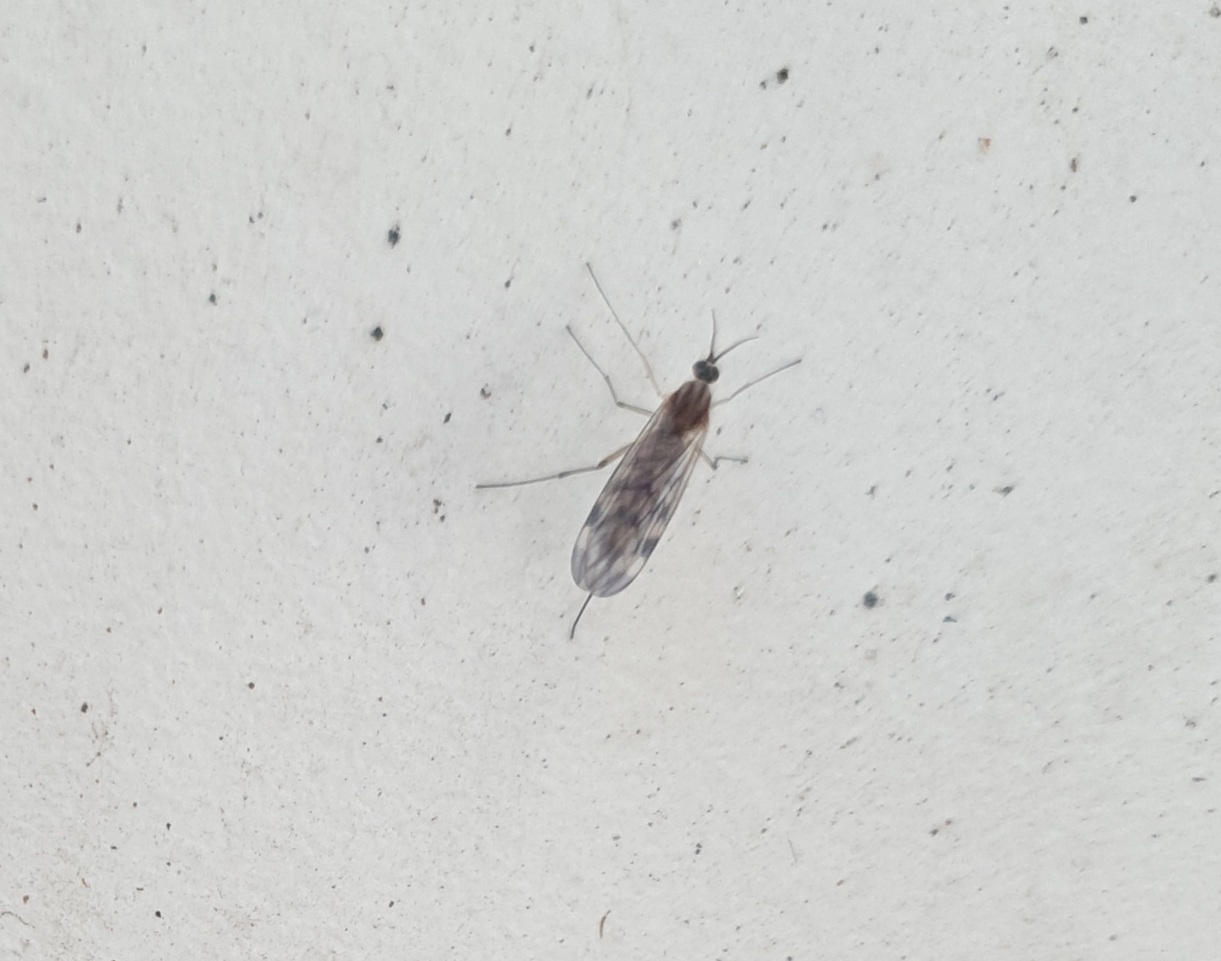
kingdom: Animalia
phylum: Arthropoda
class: Insecta
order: Diptera
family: Anisopodidae
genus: Sylvicola
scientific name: Sylvicola
